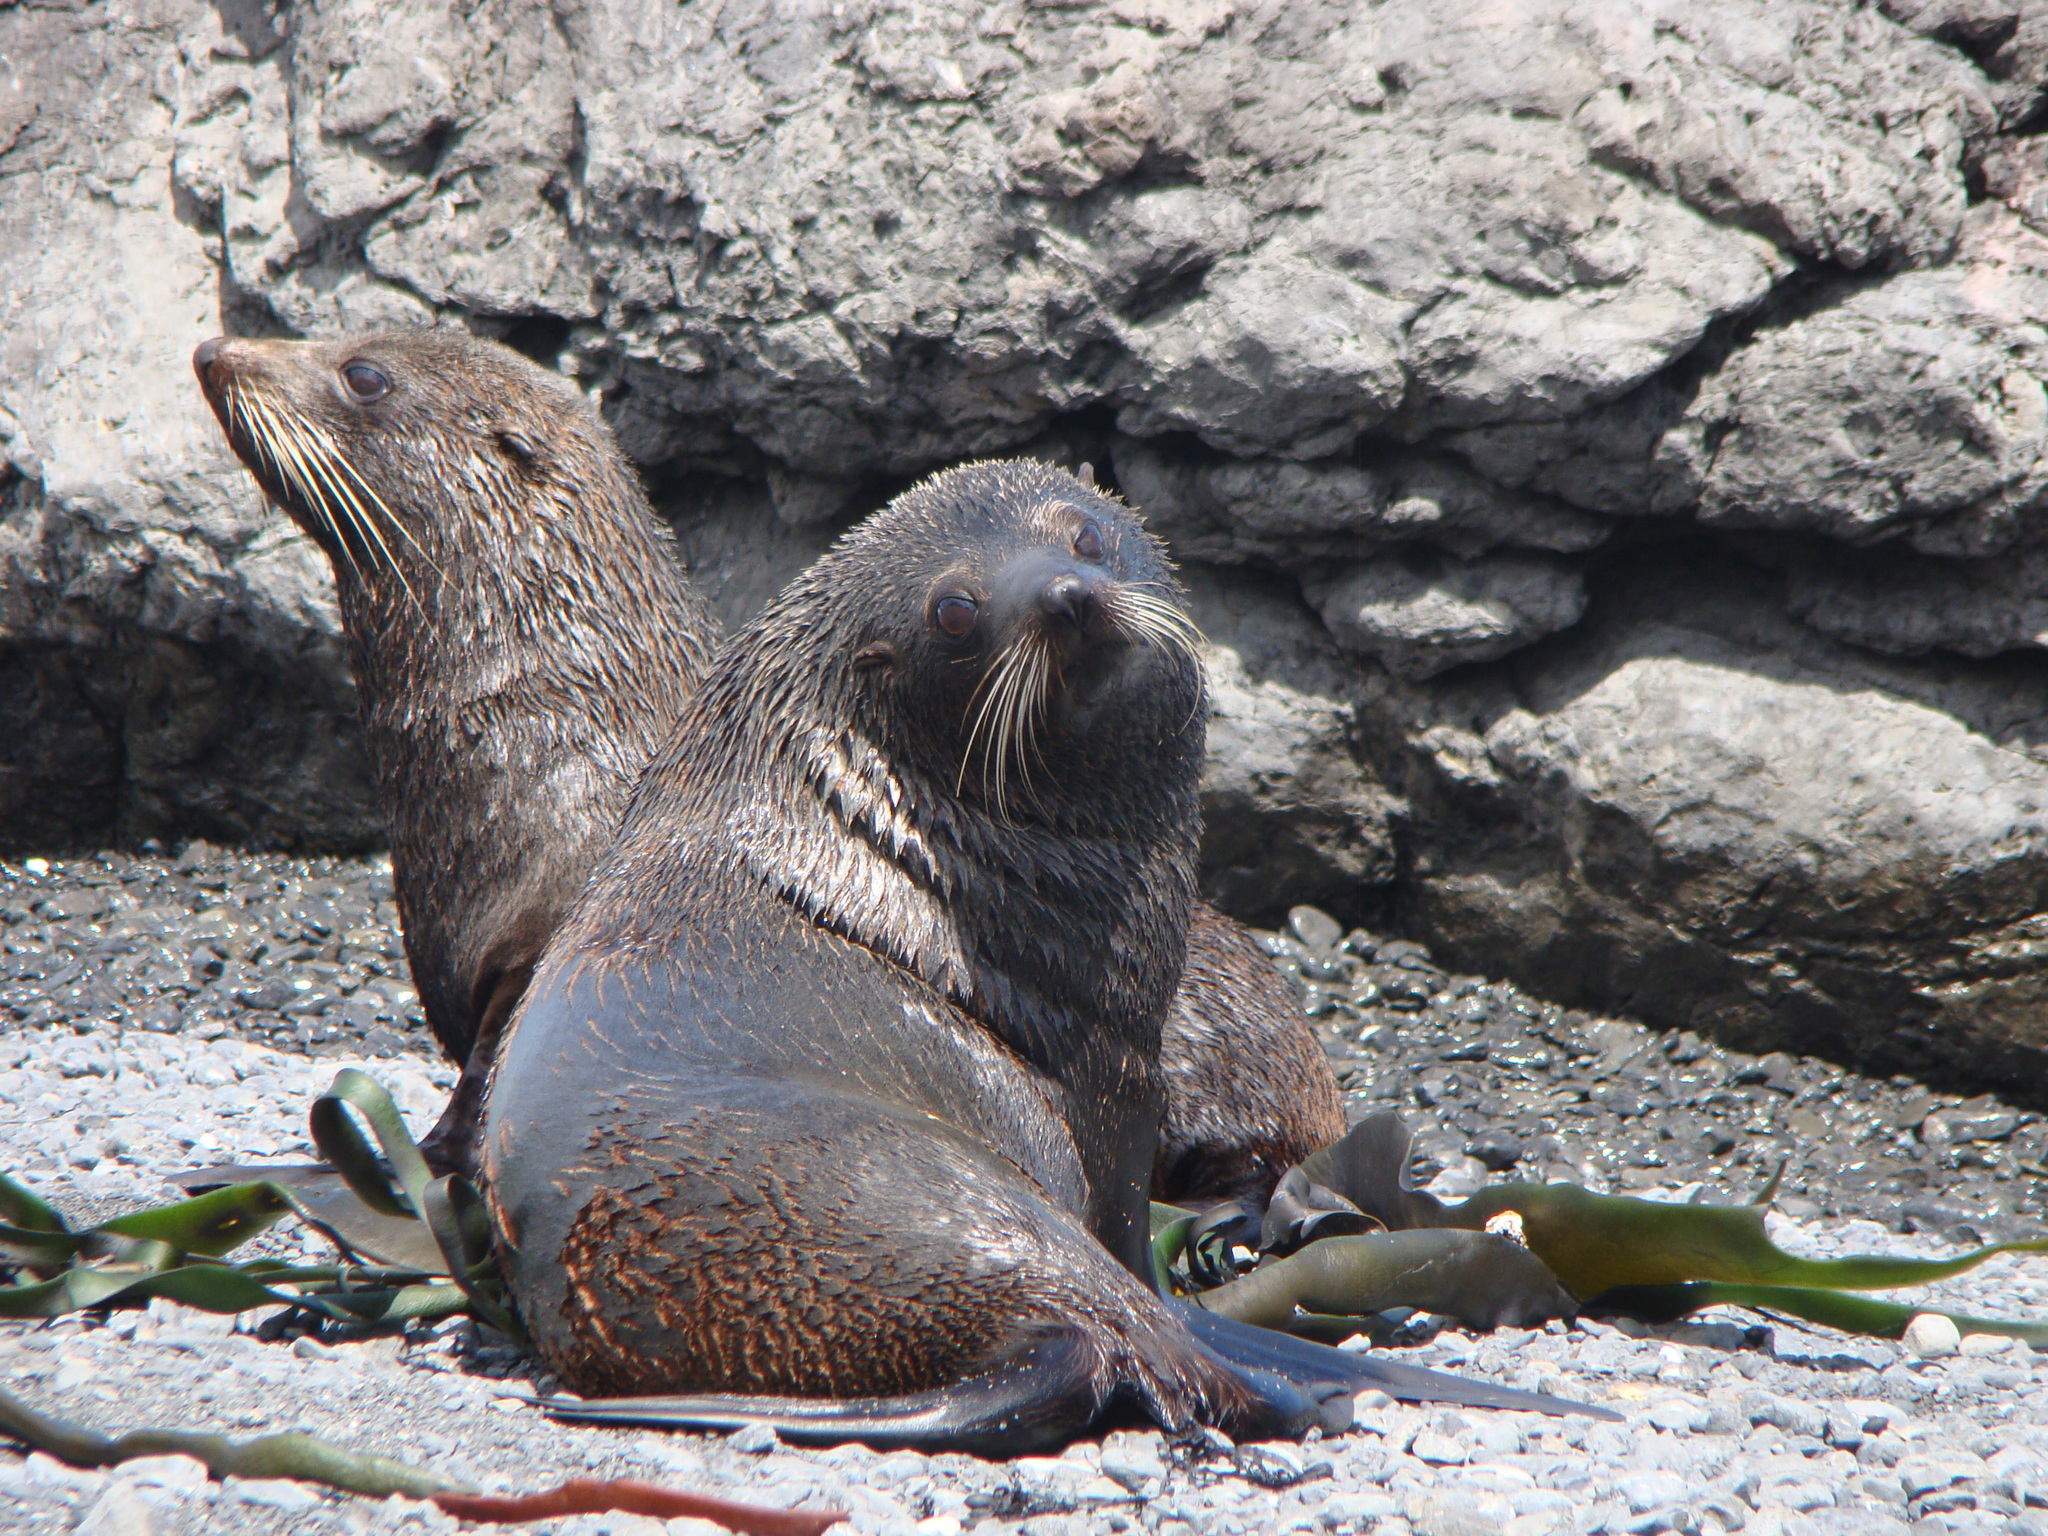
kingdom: Animalia
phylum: Chordata
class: Mammalia
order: Carnivora
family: Otariidae
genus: Arctocephalus
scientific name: Arctocephalus forsteri
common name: New zealand fur seal
